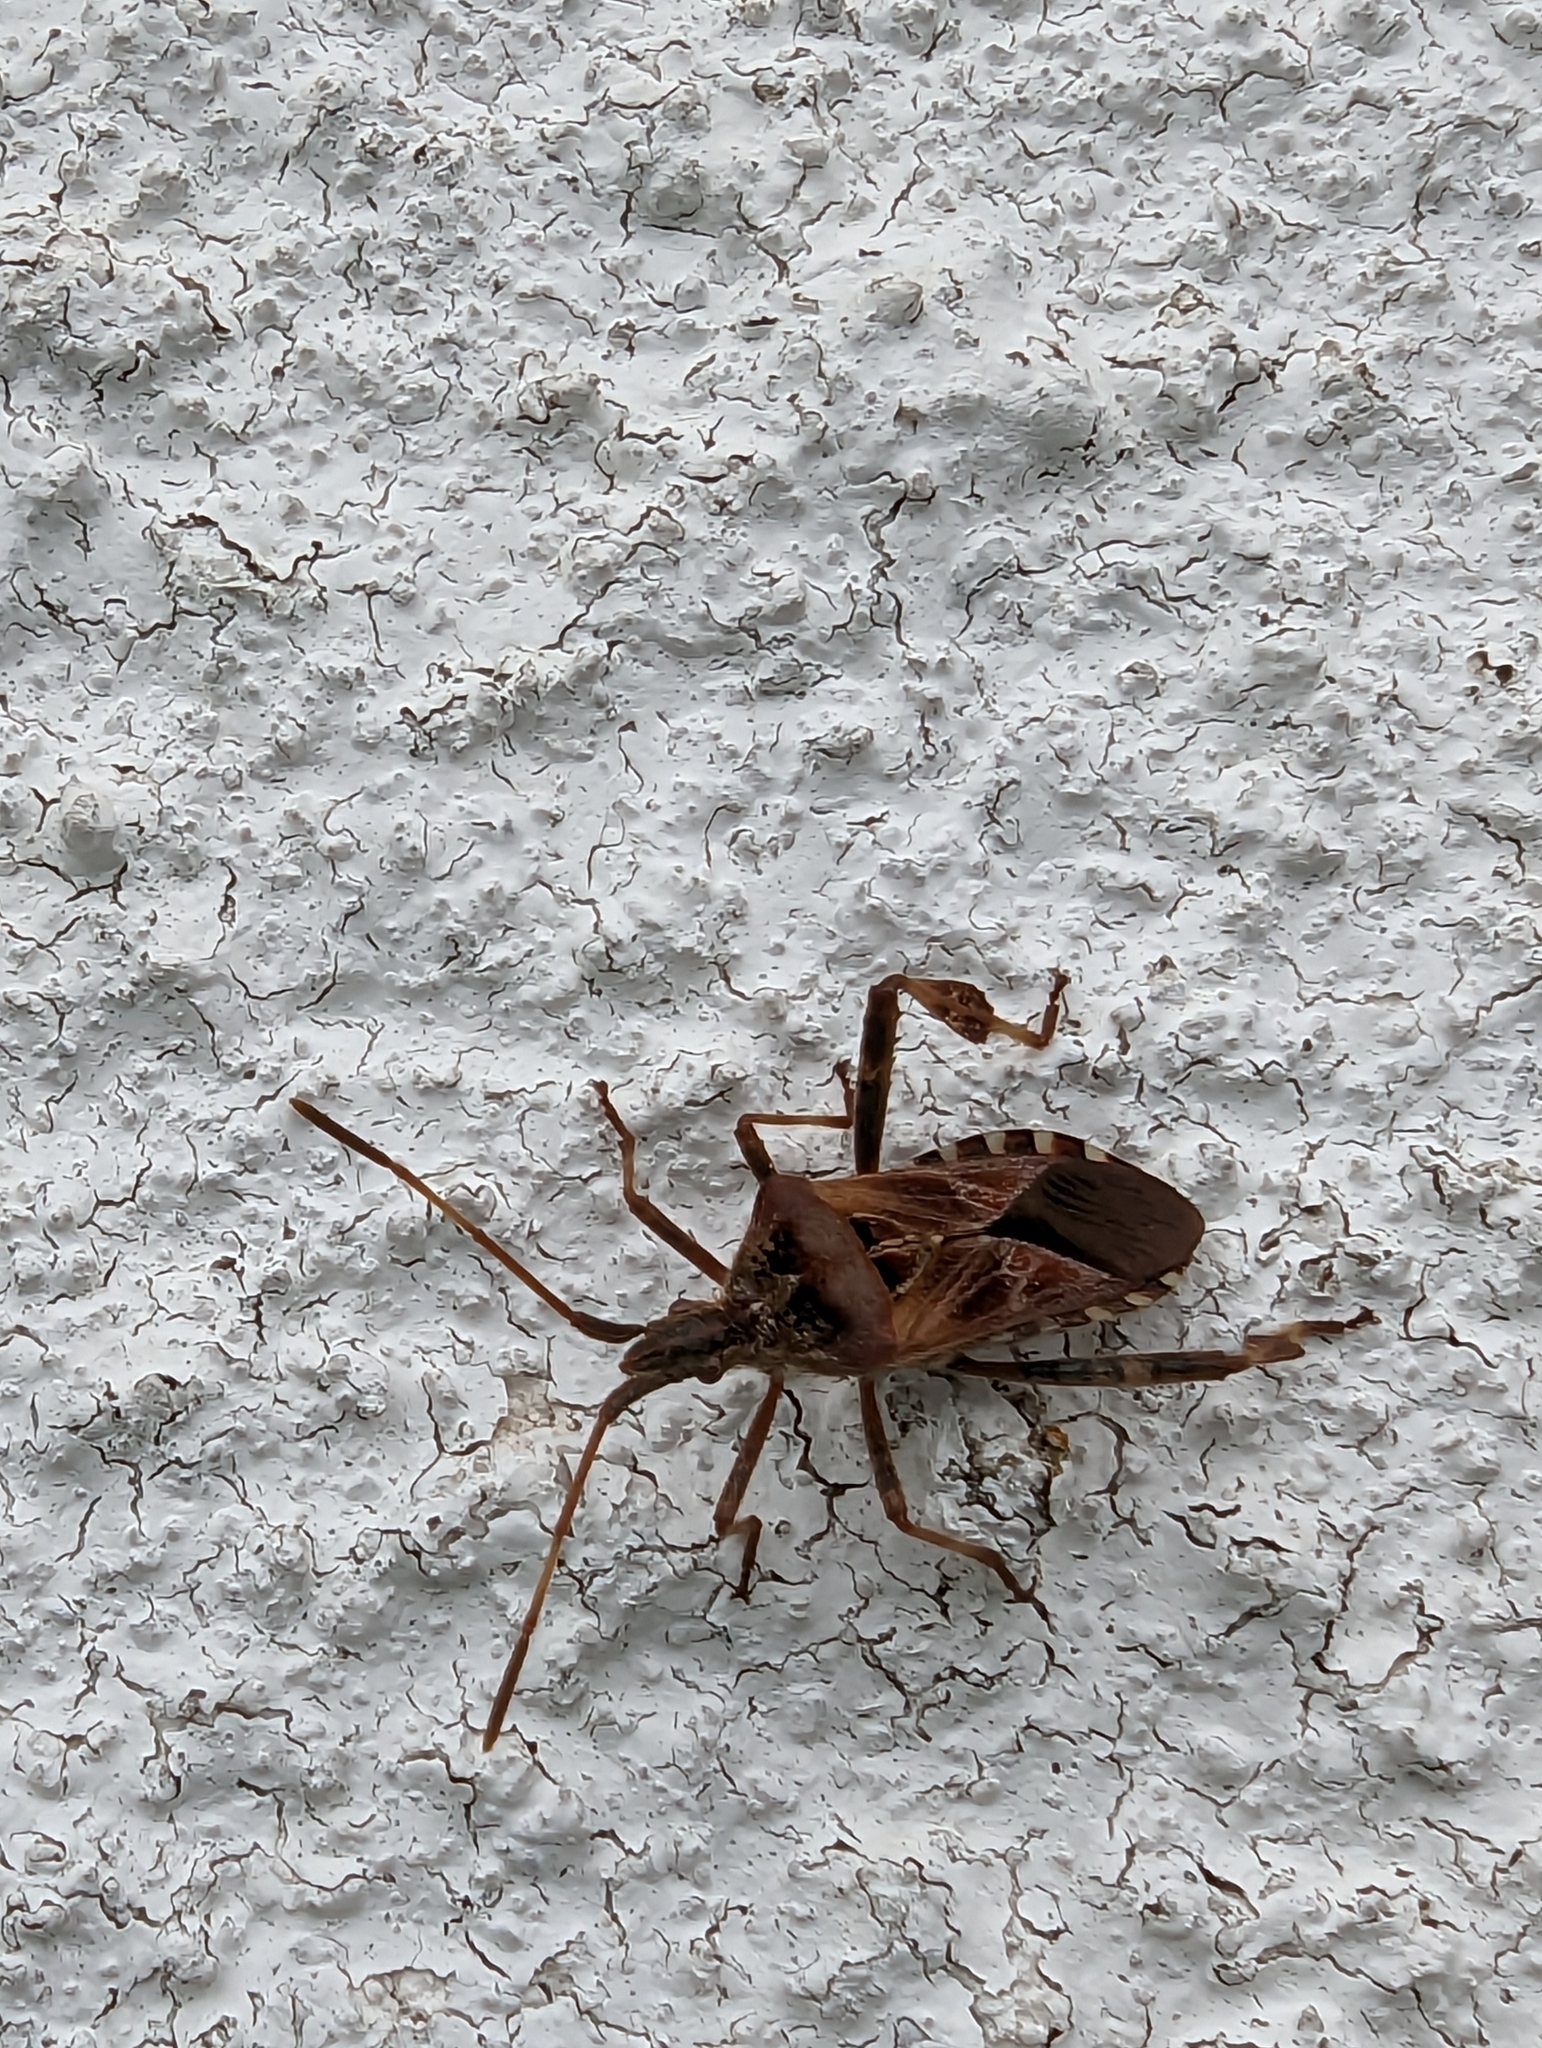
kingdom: Animalia
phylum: Arthropoda
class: Insecta
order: Hemiptera
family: Coreidae
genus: Leptoglossus
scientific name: Leptoglossus occidentalis
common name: Western conifer-seed bug
